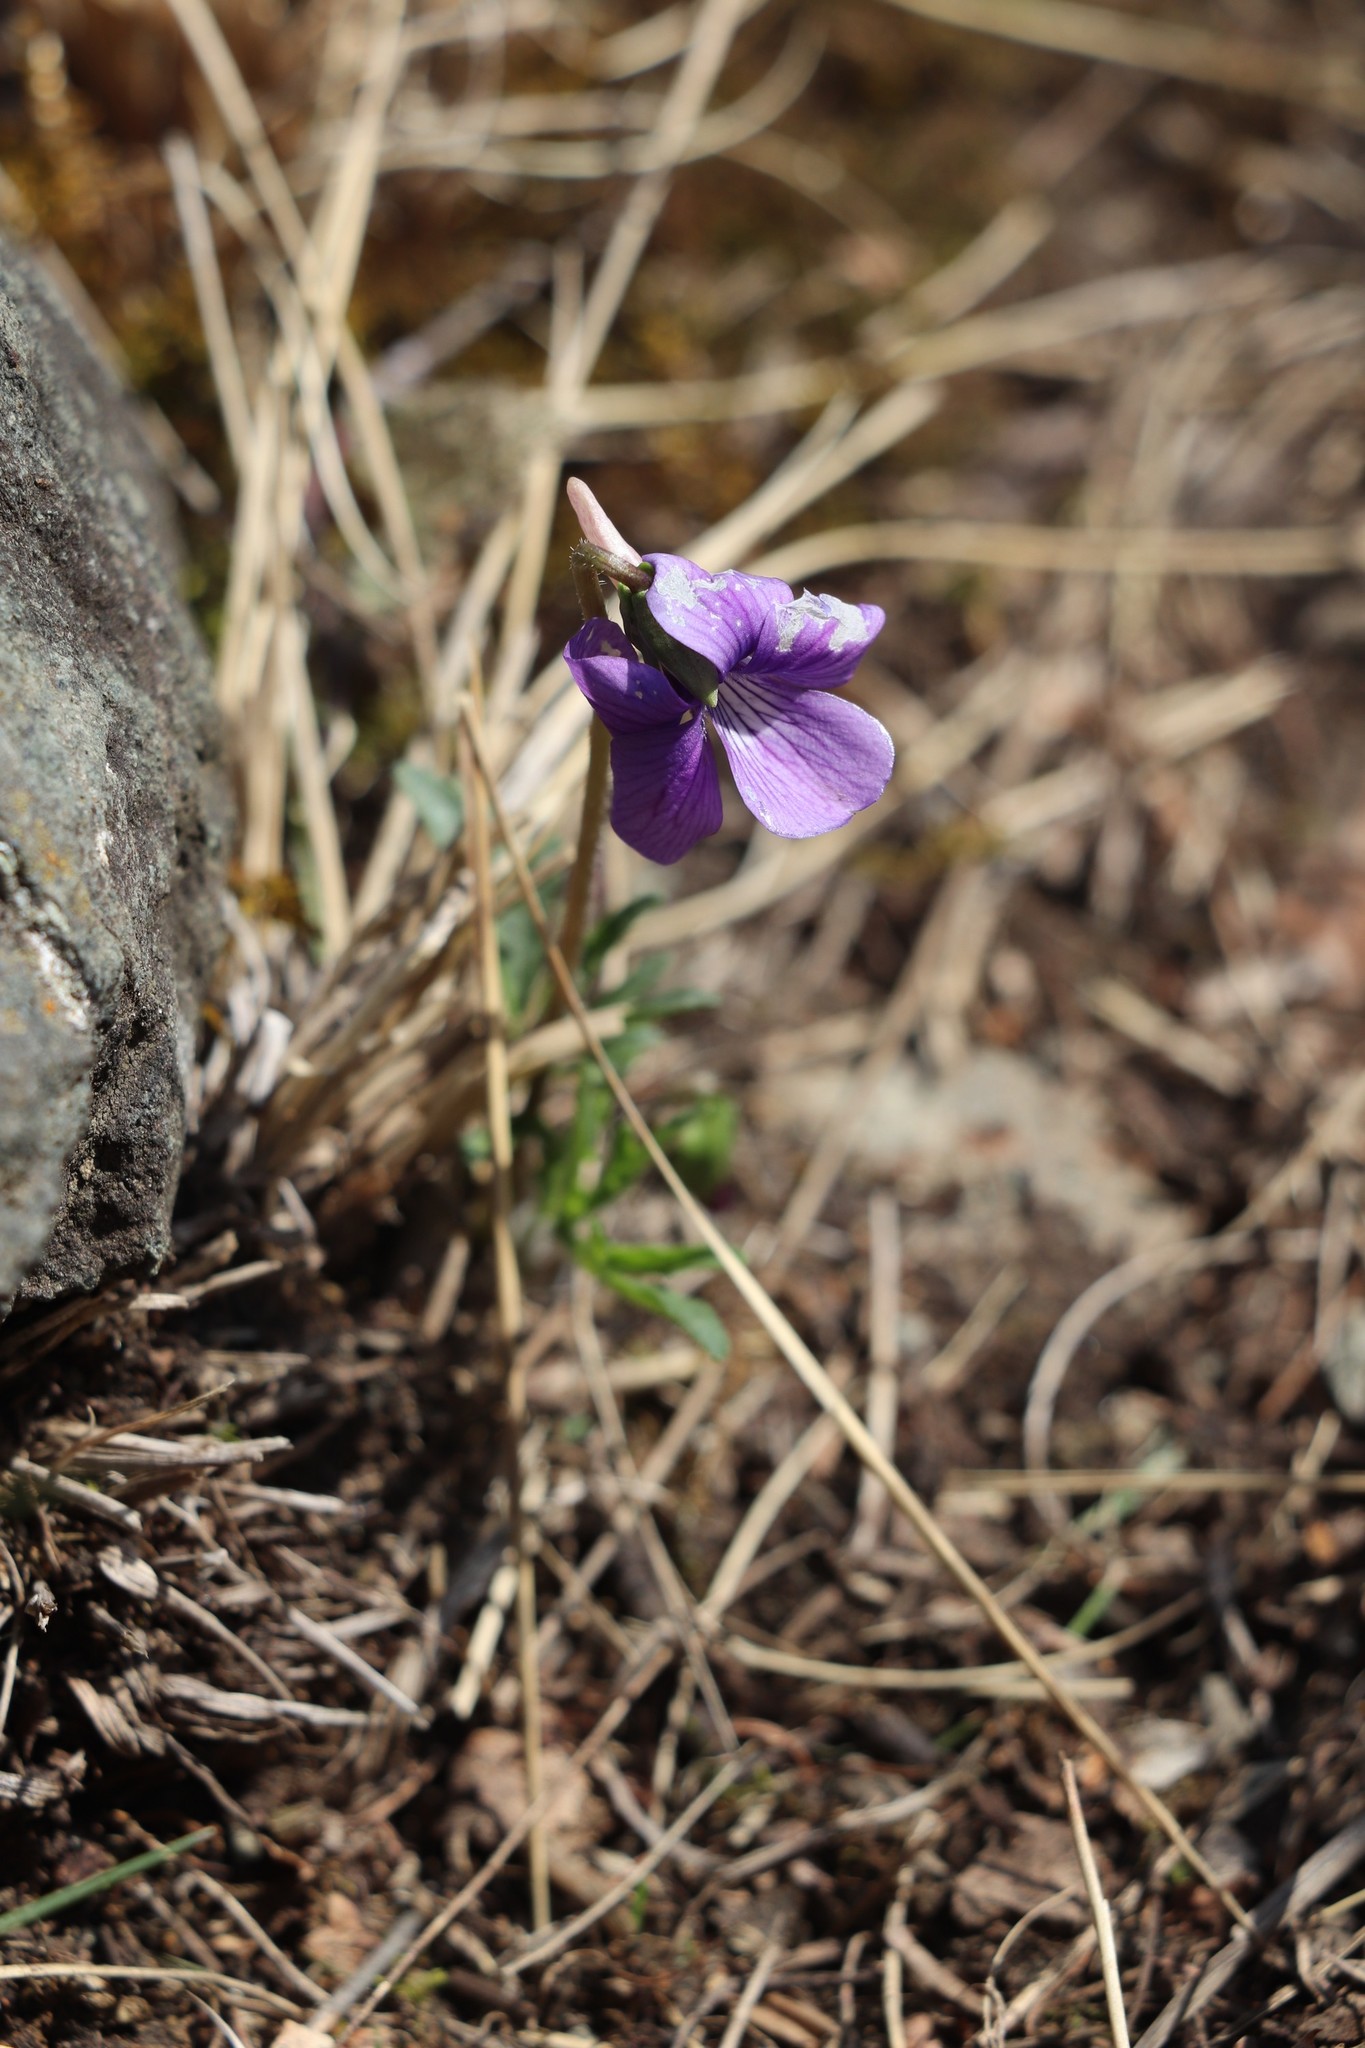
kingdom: Plantae
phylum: Tracheophyta
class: Magnoliopsida
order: Malpighiales
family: Violaceae
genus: Viola
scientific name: Viola multifida
